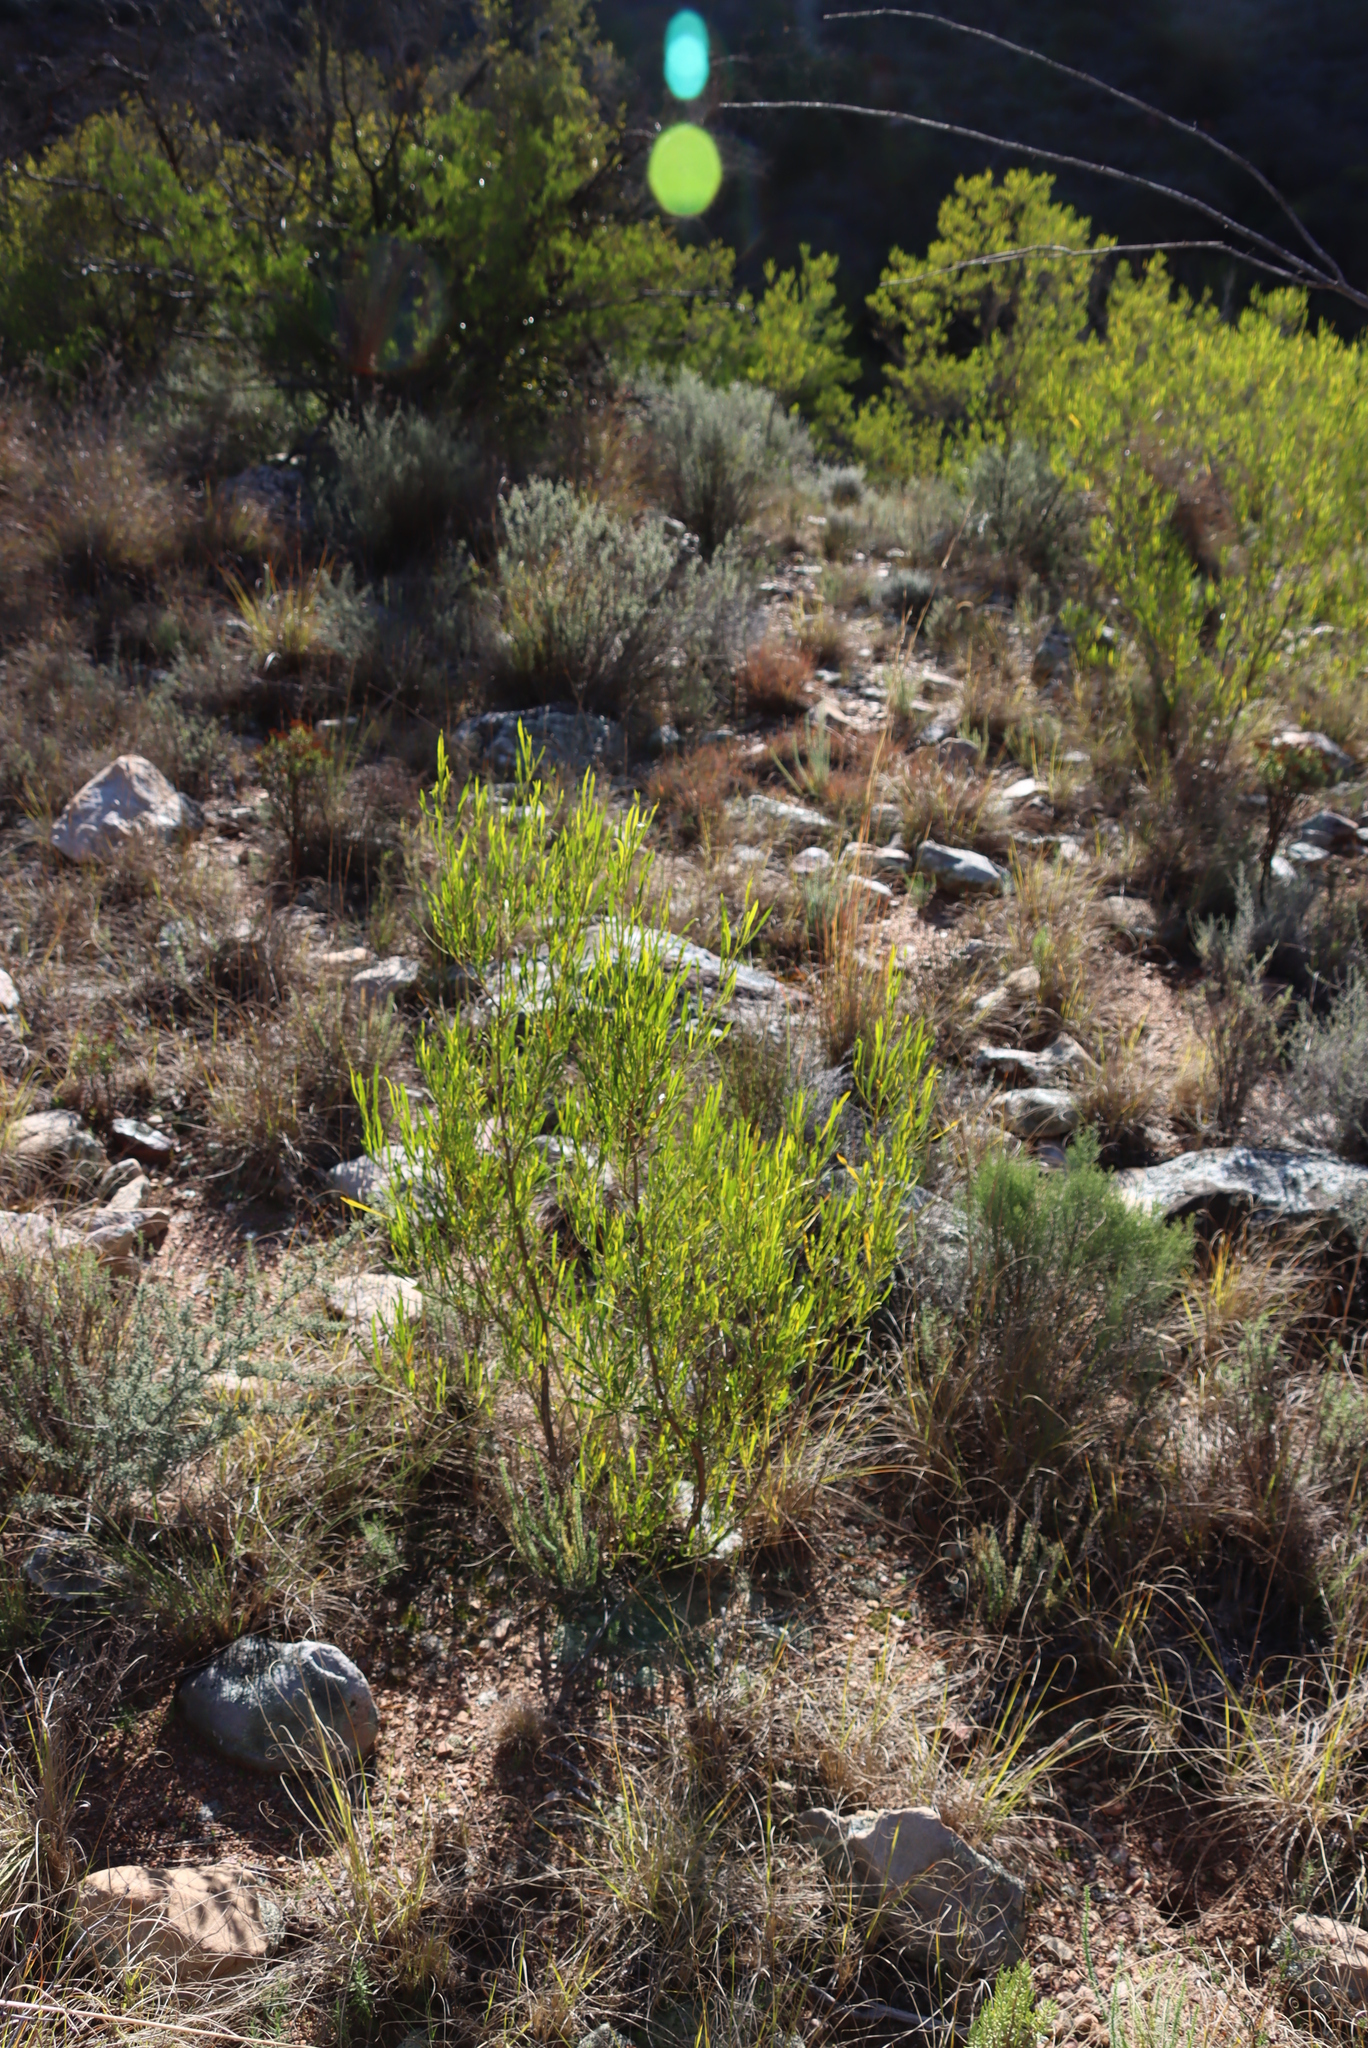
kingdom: Plantae
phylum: Tracheophyta
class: Magnoliopsida
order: Sapindales
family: Sapindaceae
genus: Dodonaea
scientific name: Dodonaea viscosa
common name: Hopbush
